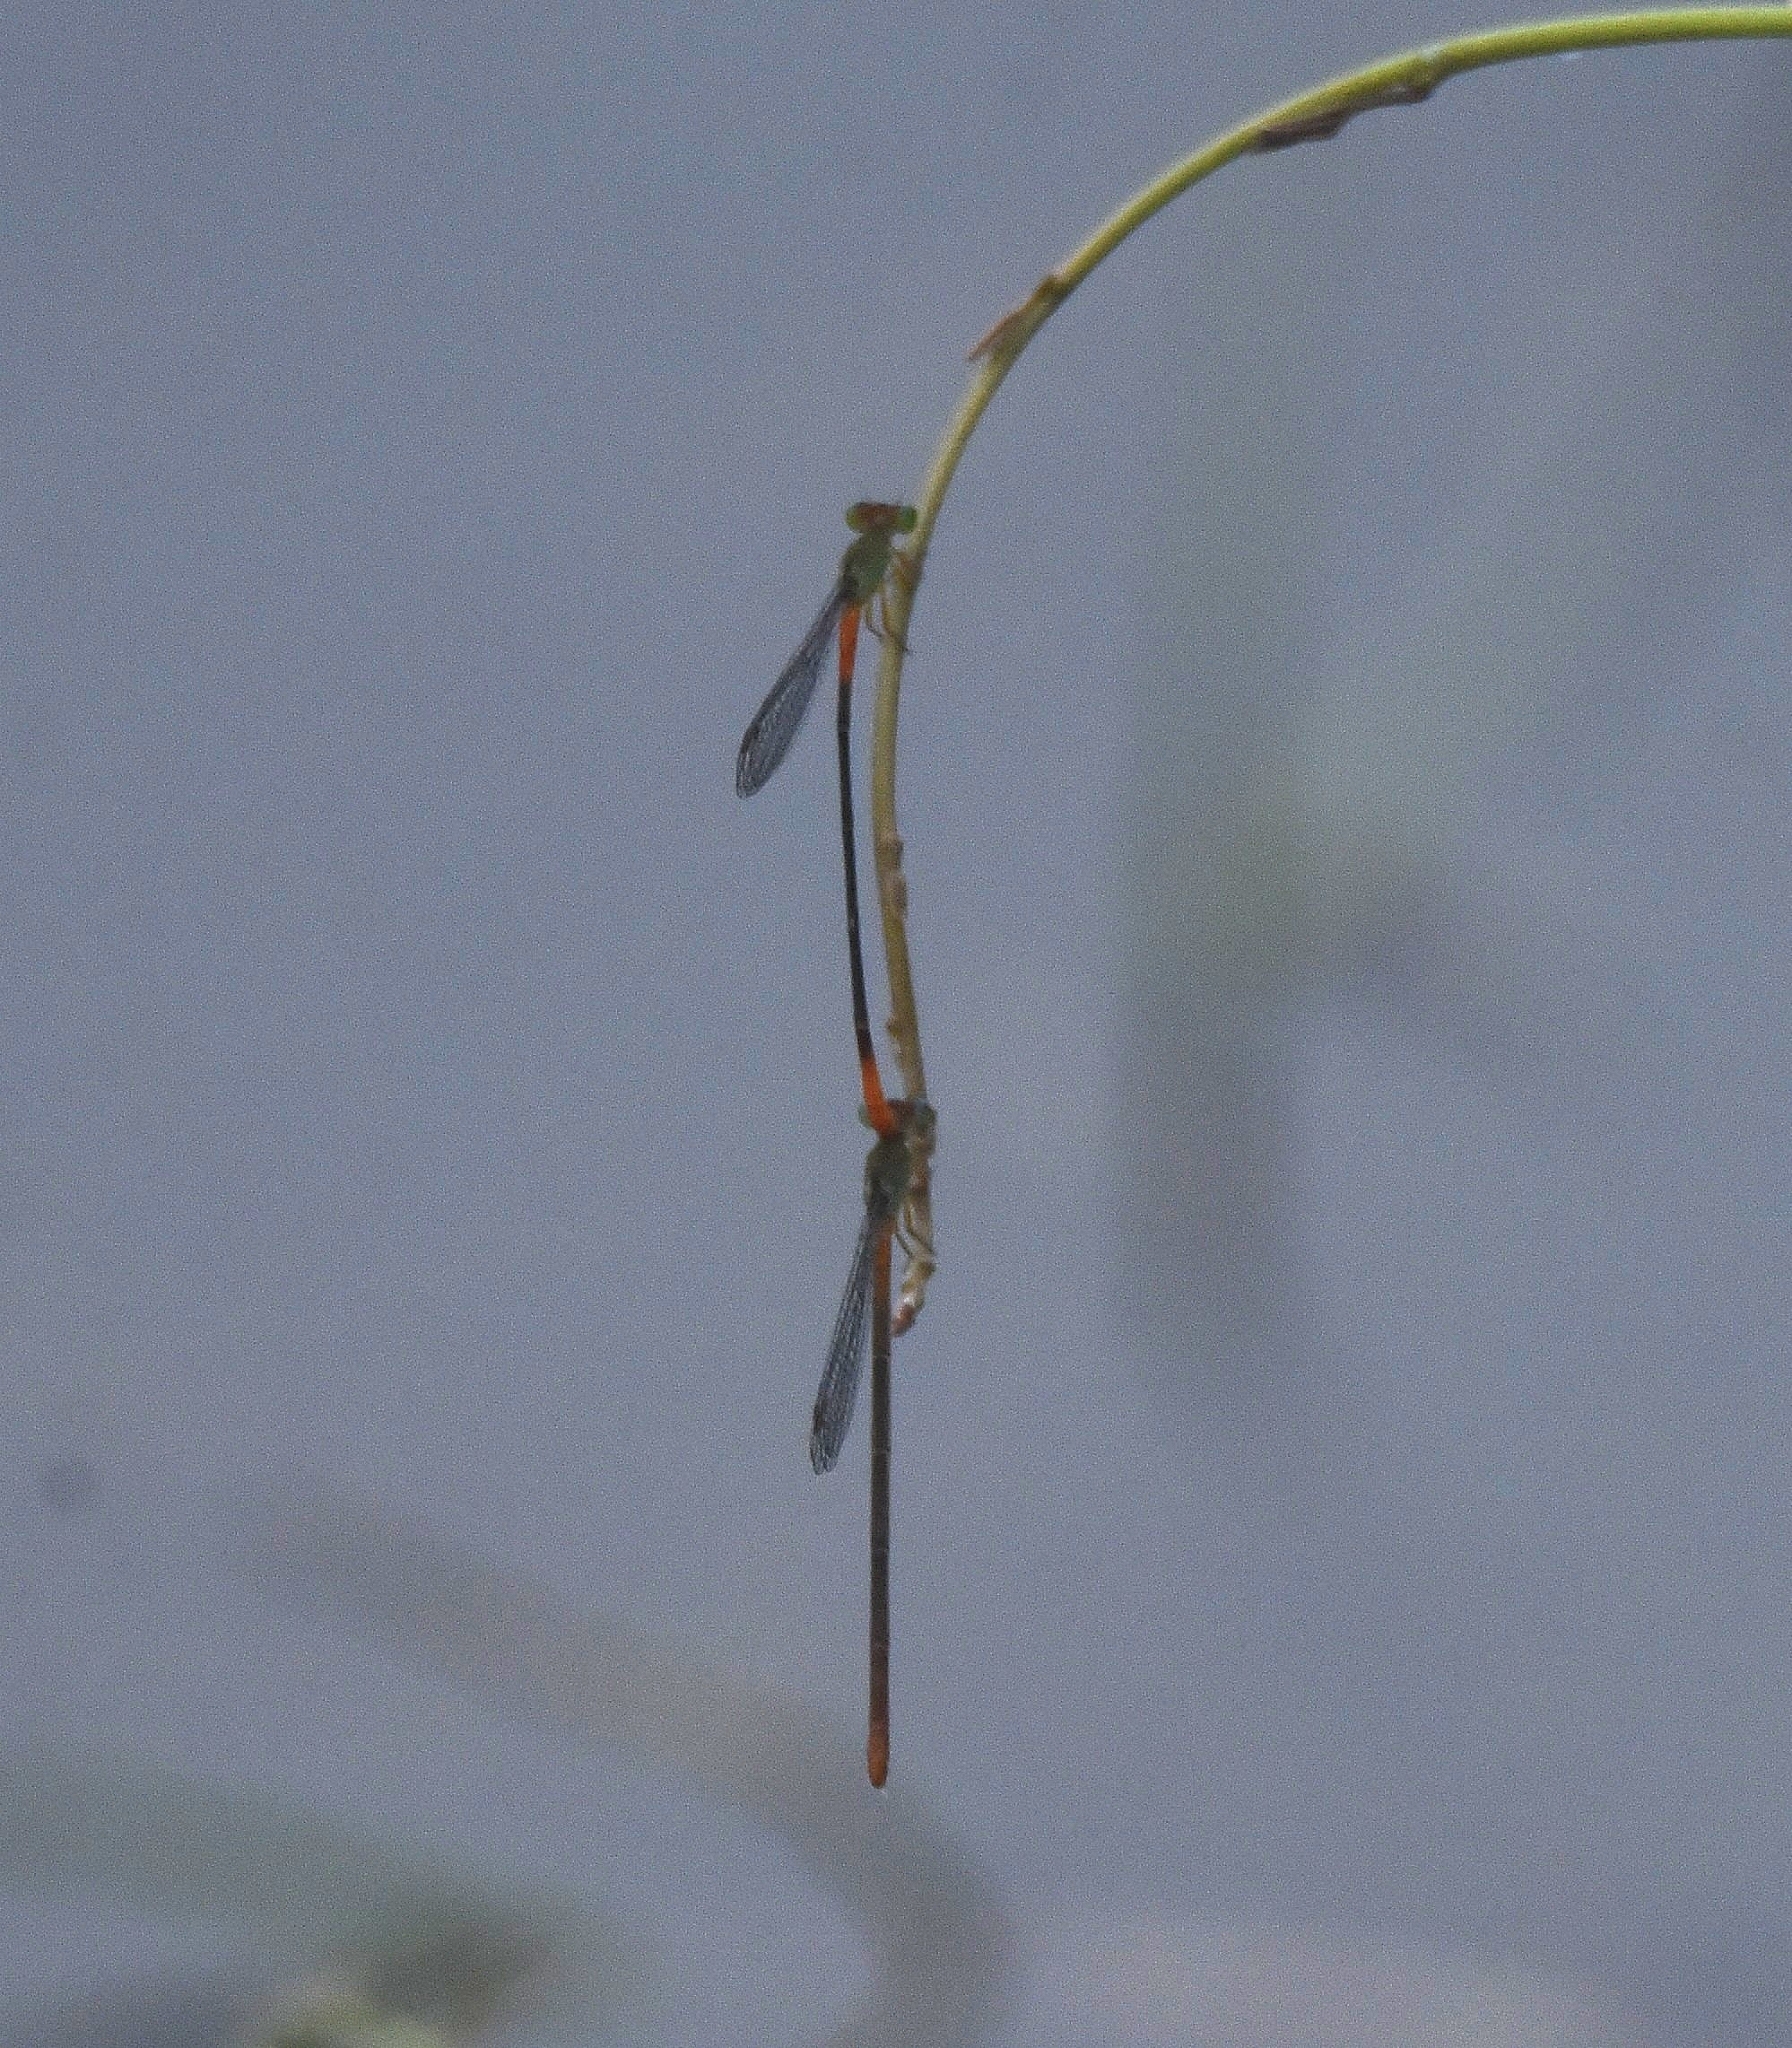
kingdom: Animalia
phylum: Arthropoda
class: Insecta
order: Odonata
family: Coenagrionidae
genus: Ceriagrion
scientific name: Ceriagrion cerinorubellum
